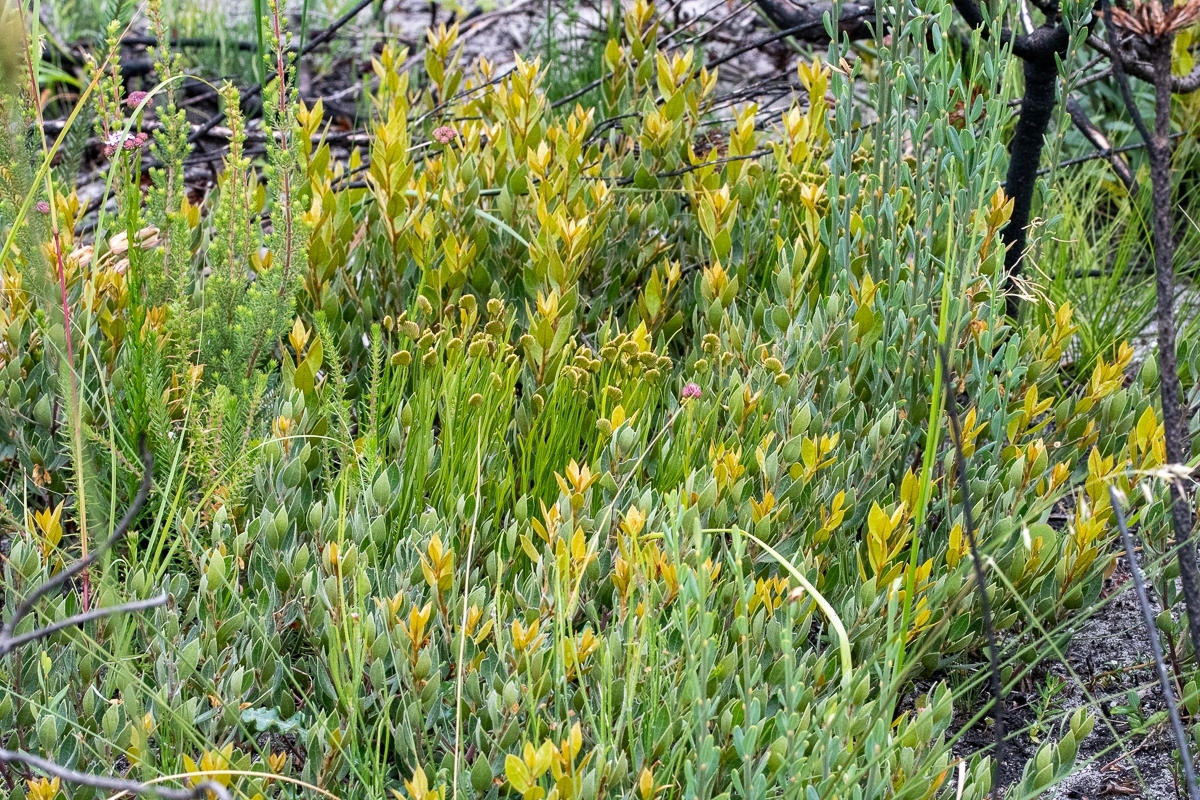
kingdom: Plantae
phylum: Tracheophyta
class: Polypodiopsida
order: Schizaeales
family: Schizaeaceae
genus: Schizaea
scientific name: Schizaea pectinata
